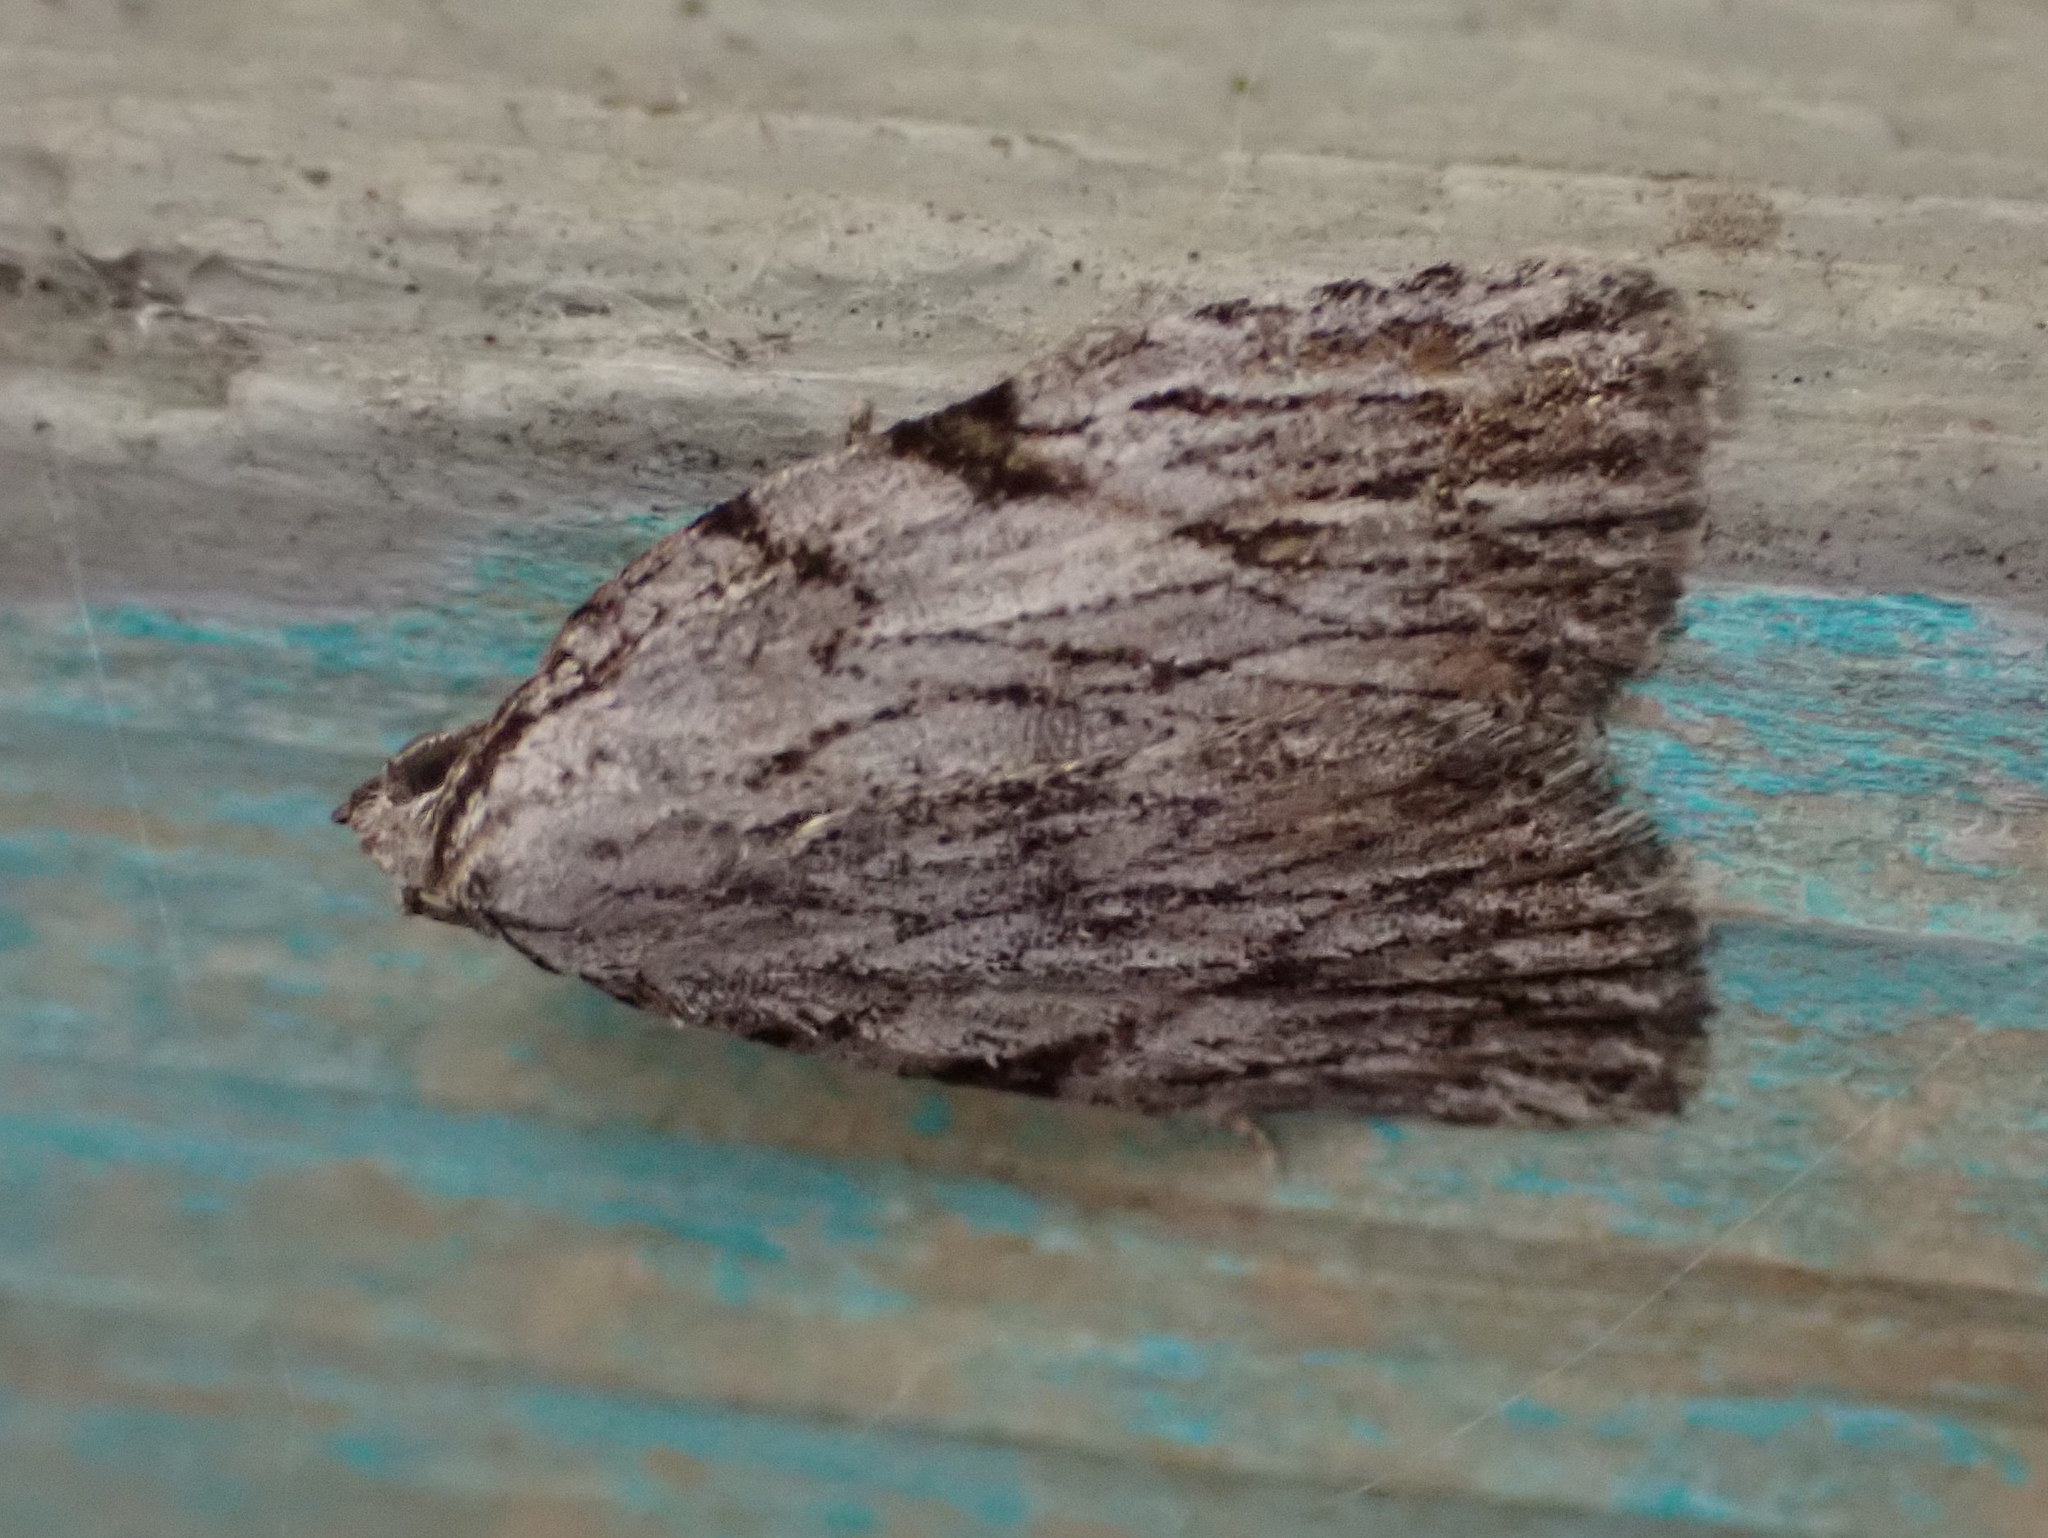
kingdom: Animalia
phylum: Arthropoda
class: Insecta
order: Lepidoptera
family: Noctuidae
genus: Balsa
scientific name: Balsa tristrigella
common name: Three-lined balsa moth
